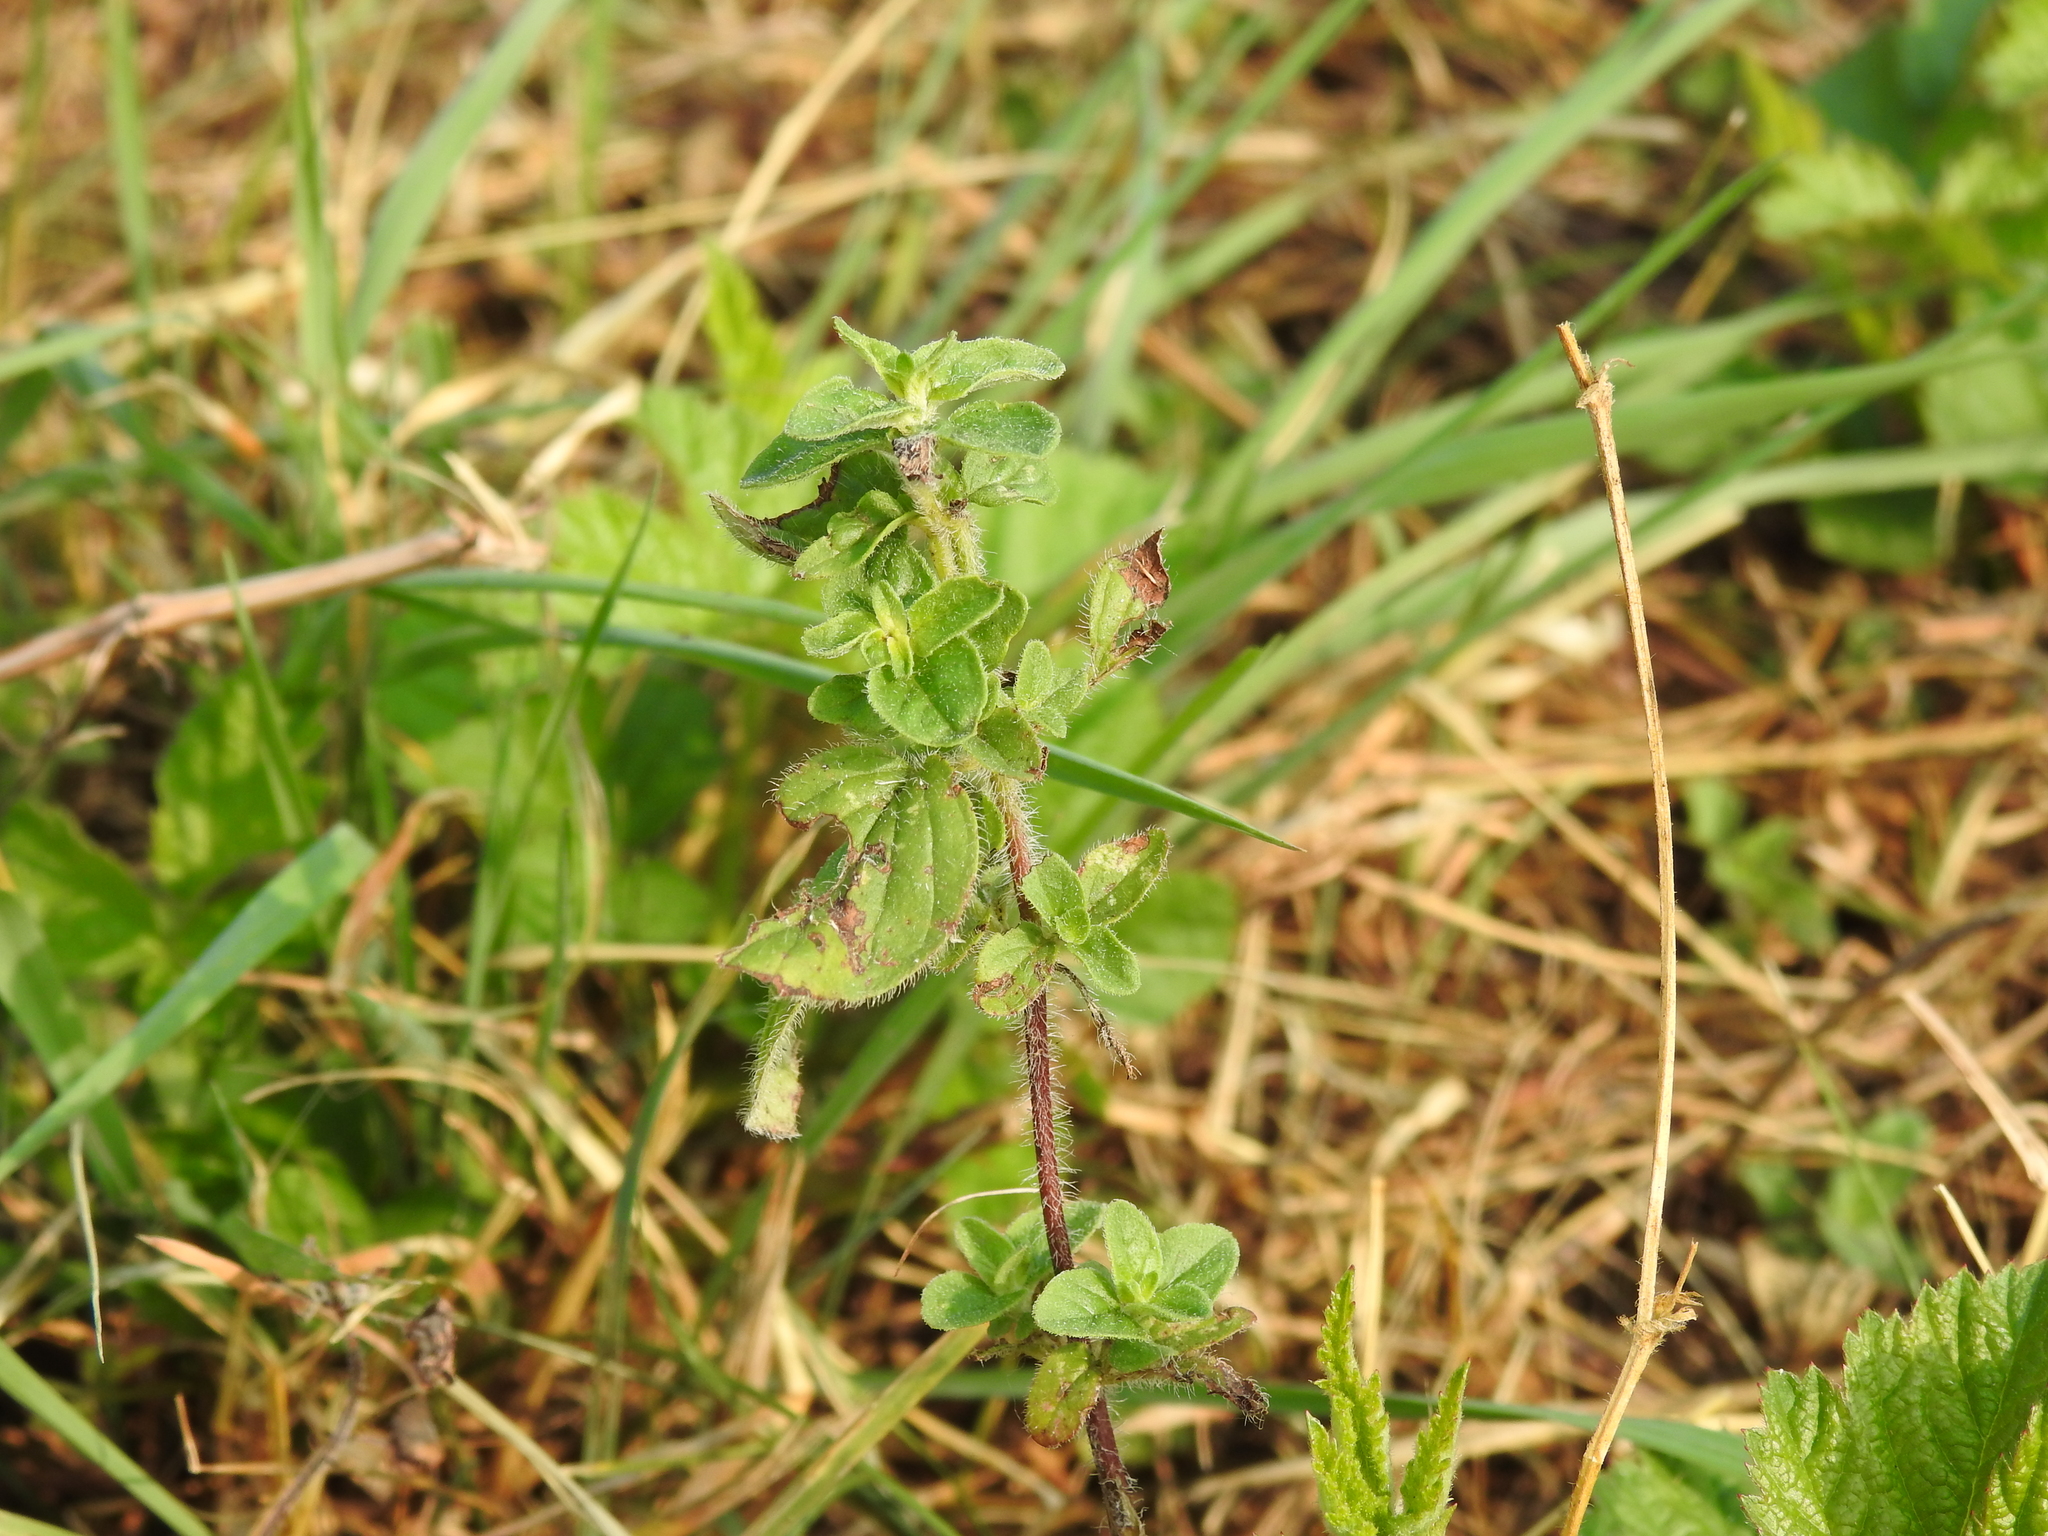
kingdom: Plantae
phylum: Tracheophyta
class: Magnoliopsida
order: Lamiales
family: Lamiaceae
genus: Origanum
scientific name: Origanum vulgare
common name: Wild marjoram
